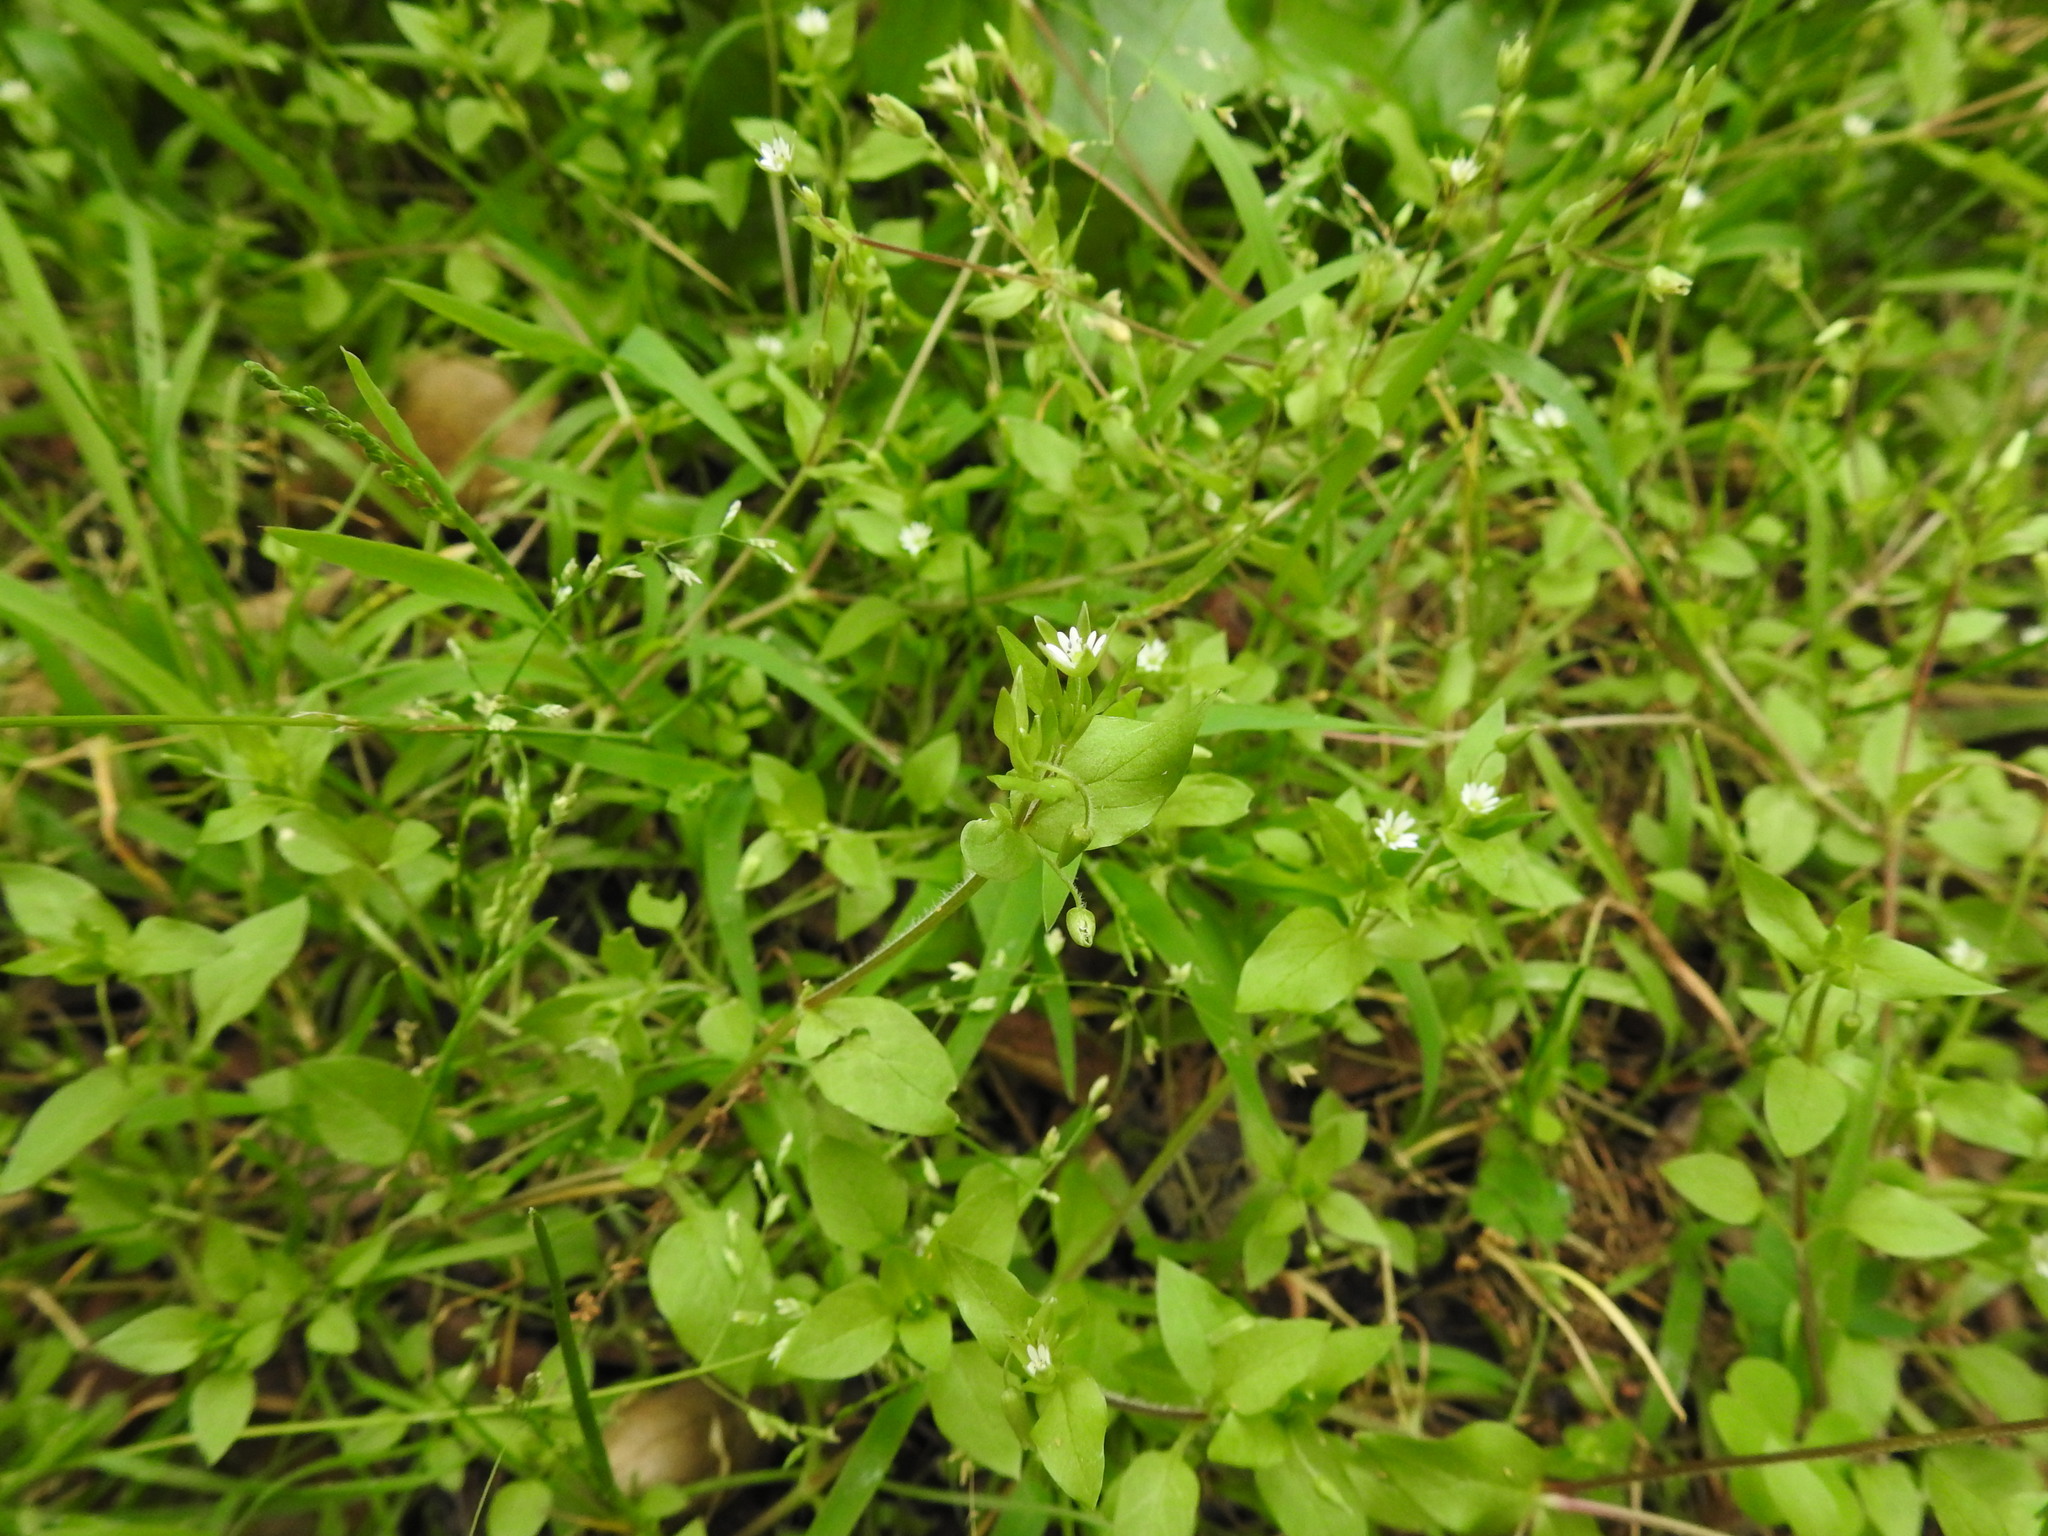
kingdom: Plantae
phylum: Tracheophyta
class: Magnoliopsida
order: Caryophyllales
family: Caryophyllaceae
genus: Stellaria
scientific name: Stellaria media
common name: Common chickweed
